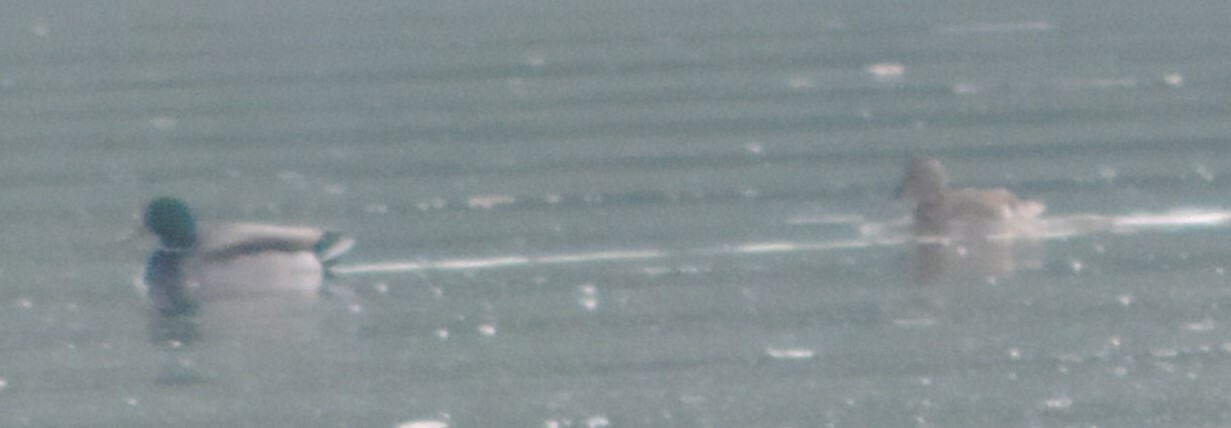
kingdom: Animalia
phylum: Chordata
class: Aves
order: Anseriformes
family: Anatidae
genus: Anas
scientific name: Anas platyrhynchos
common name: Mallard
